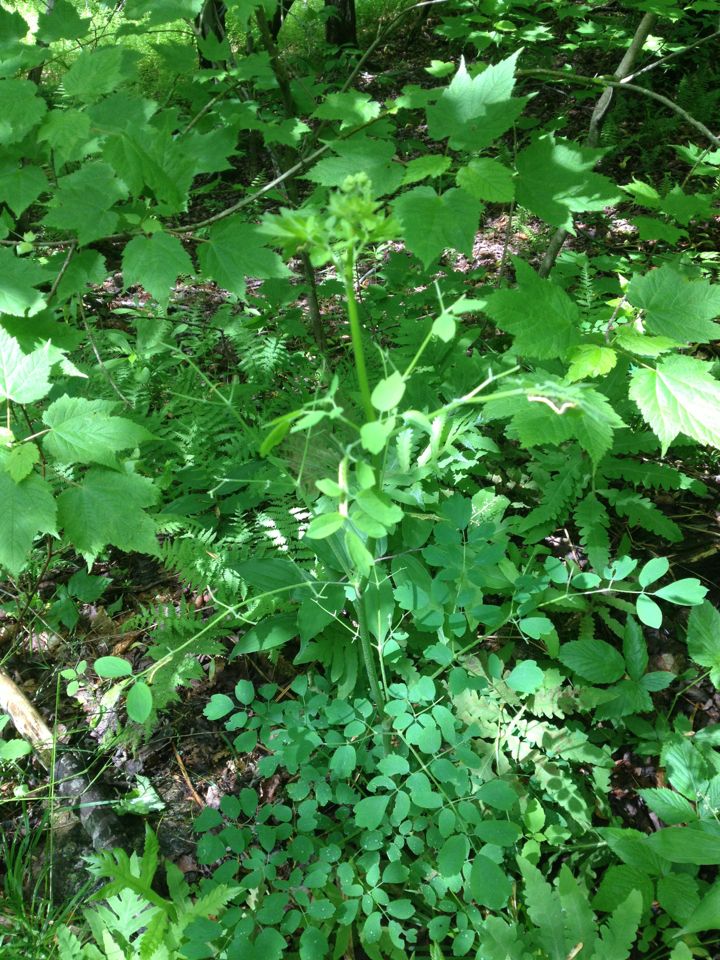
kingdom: Plantae
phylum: Tracheophyta
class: Magnoliopsida
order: Ranunculales
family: Ranunculaceae
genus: Thalictrum
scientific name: Thalictrum pubescens
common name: King-of-the-meadow
